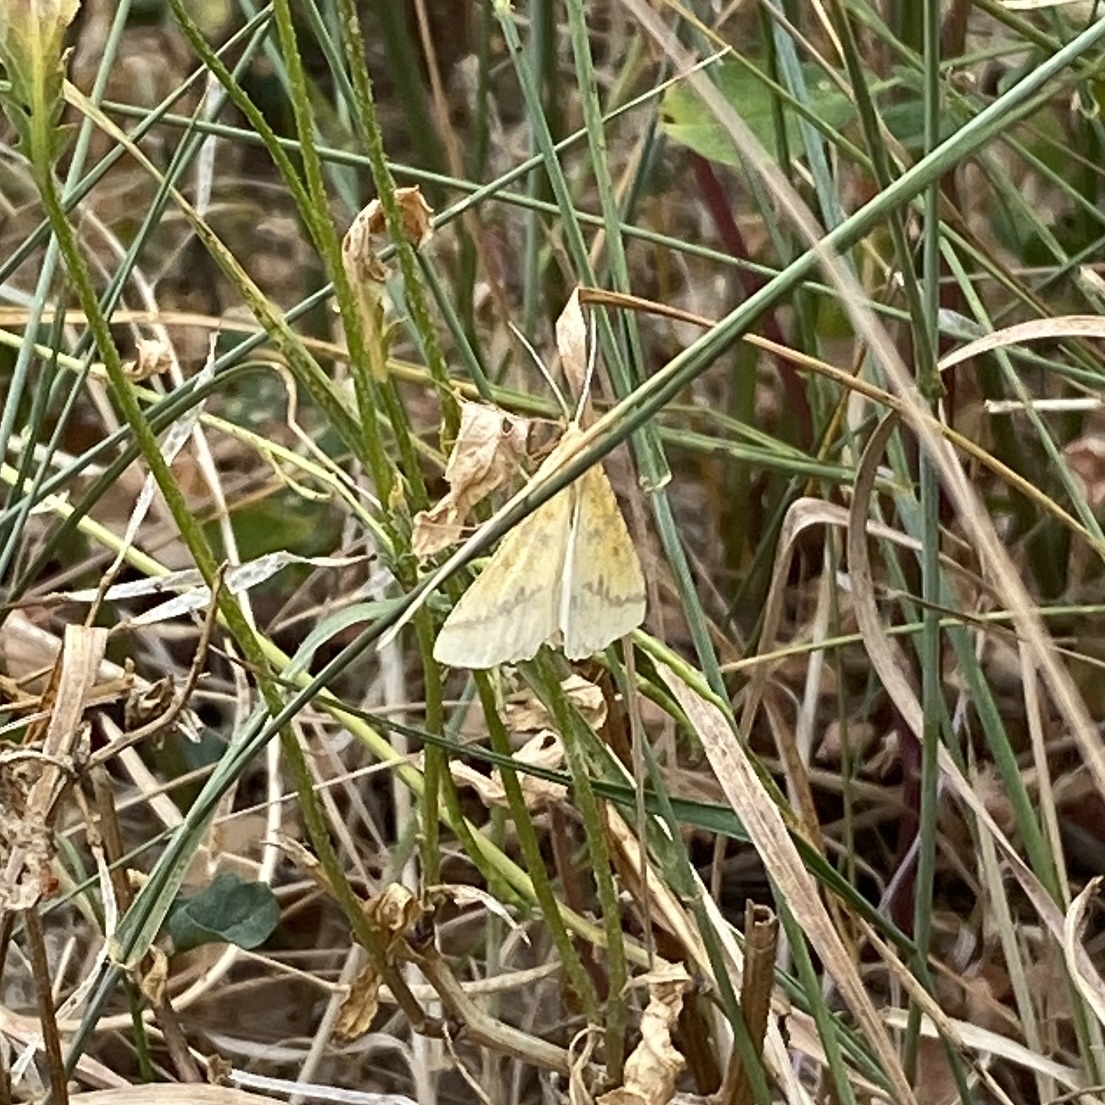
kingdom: Animalia
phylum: Arthropoda
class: Insecta
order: Lepidoptera
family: Geometridae
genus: Aspitates
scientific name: Aspitates ochrearia
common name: Yellow belle
